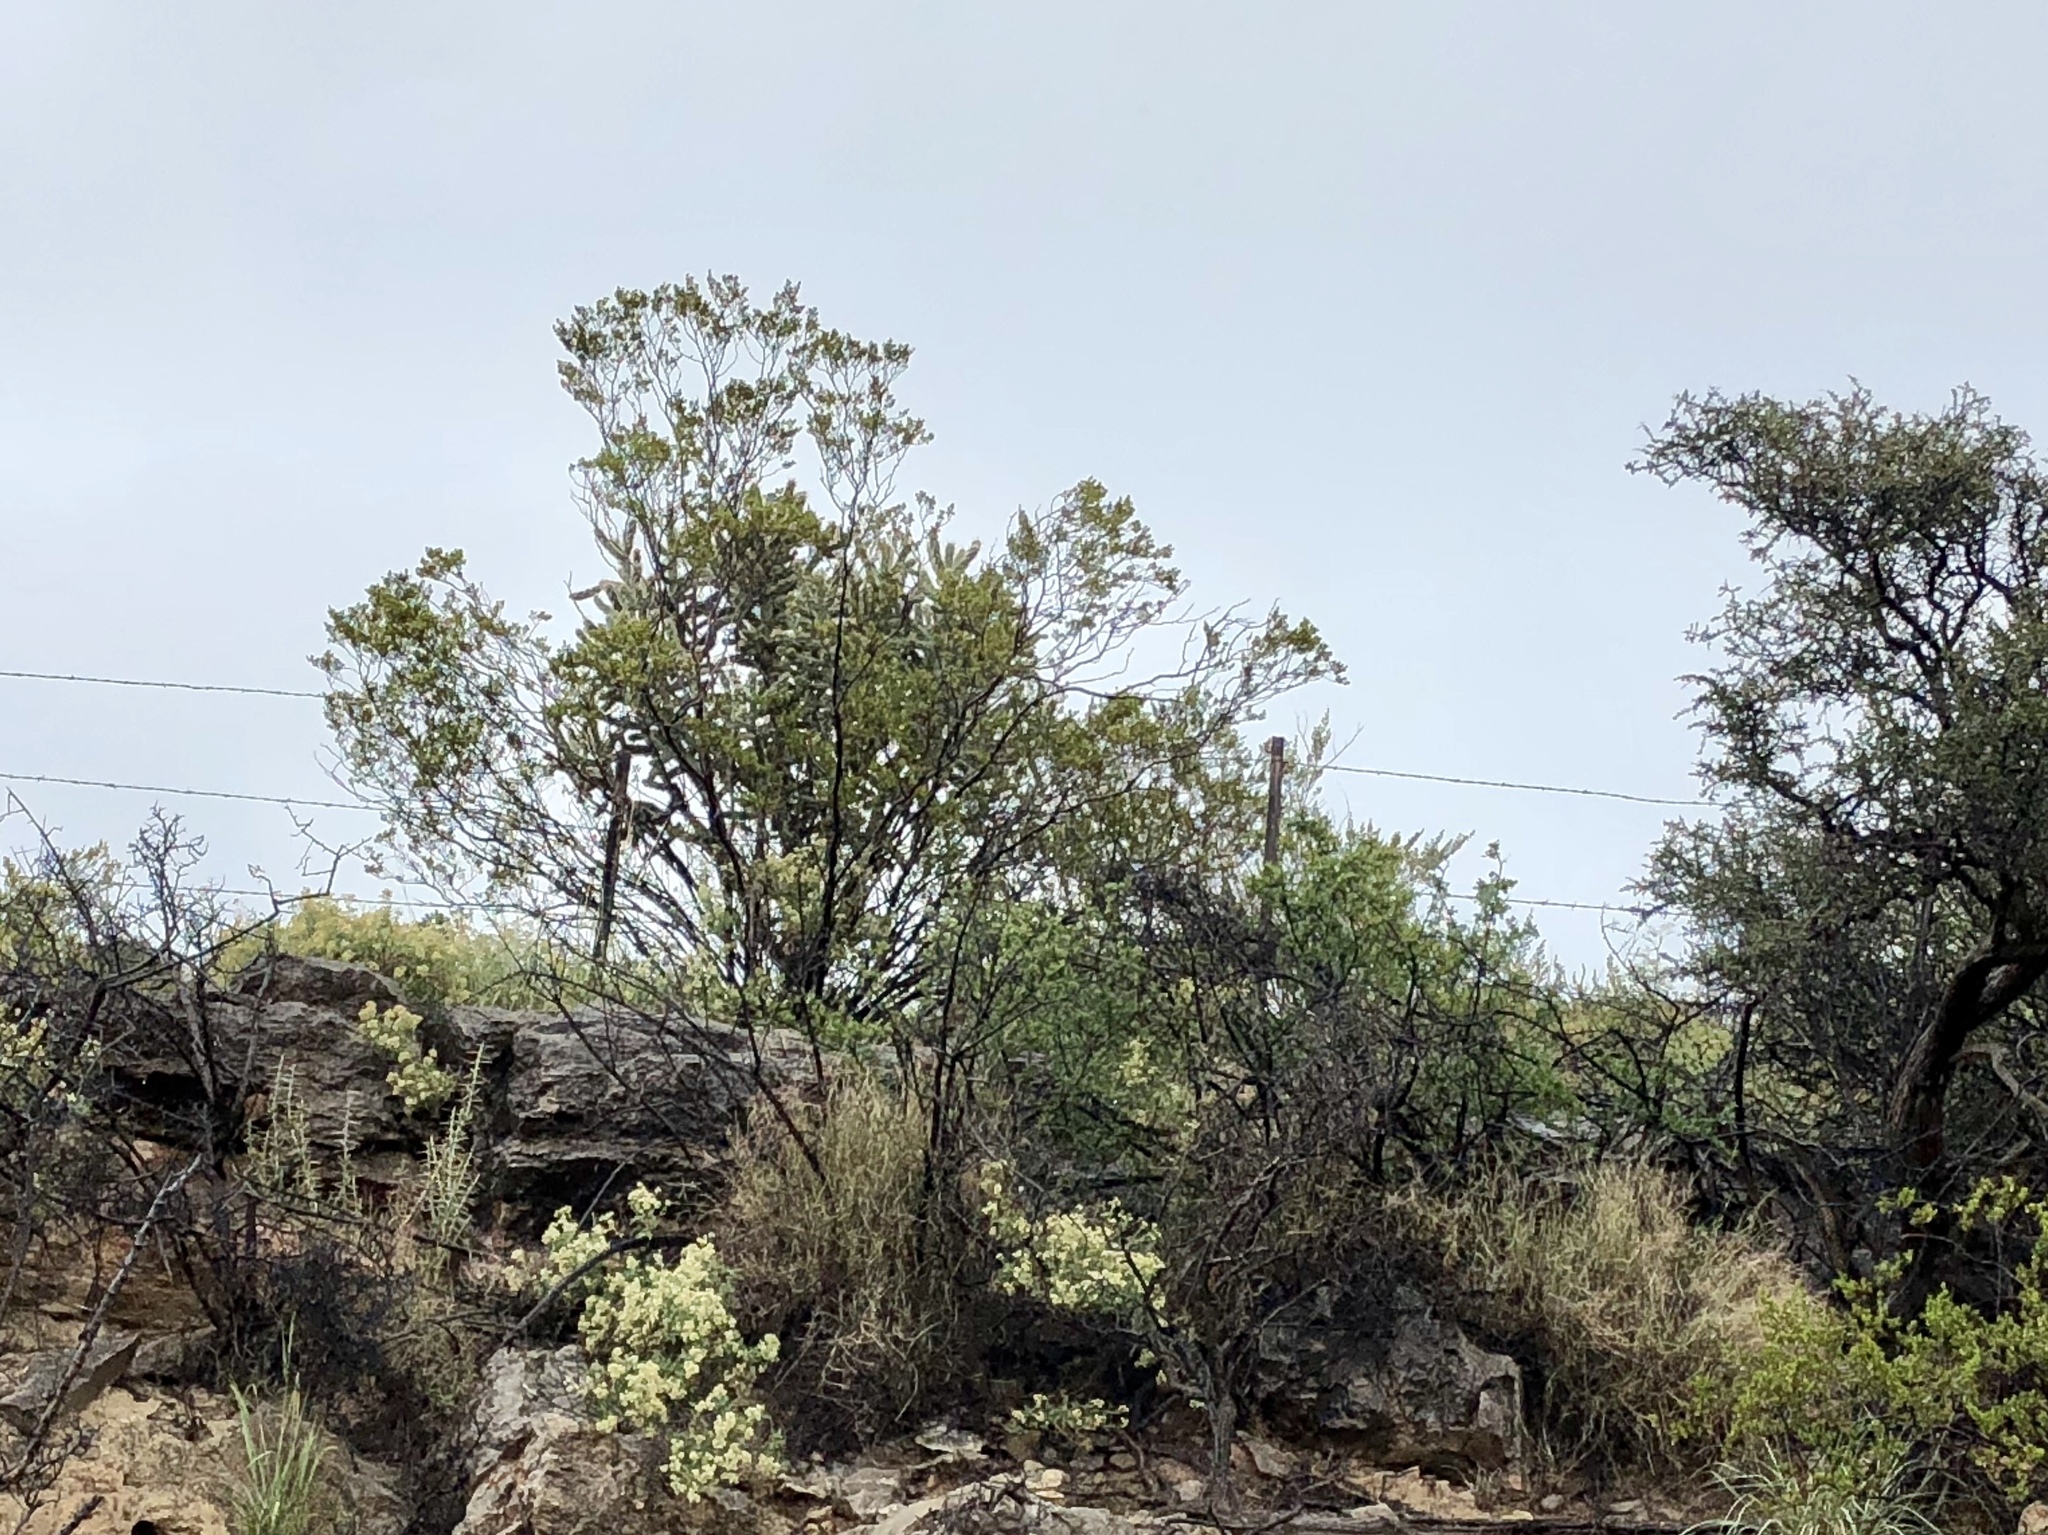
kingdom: Plantae
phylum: Tracheophyta
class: Magnoliopsida
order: Zygophyllales
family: Zygophyllaceae
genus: Larrea
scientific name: Larrea tridentata
